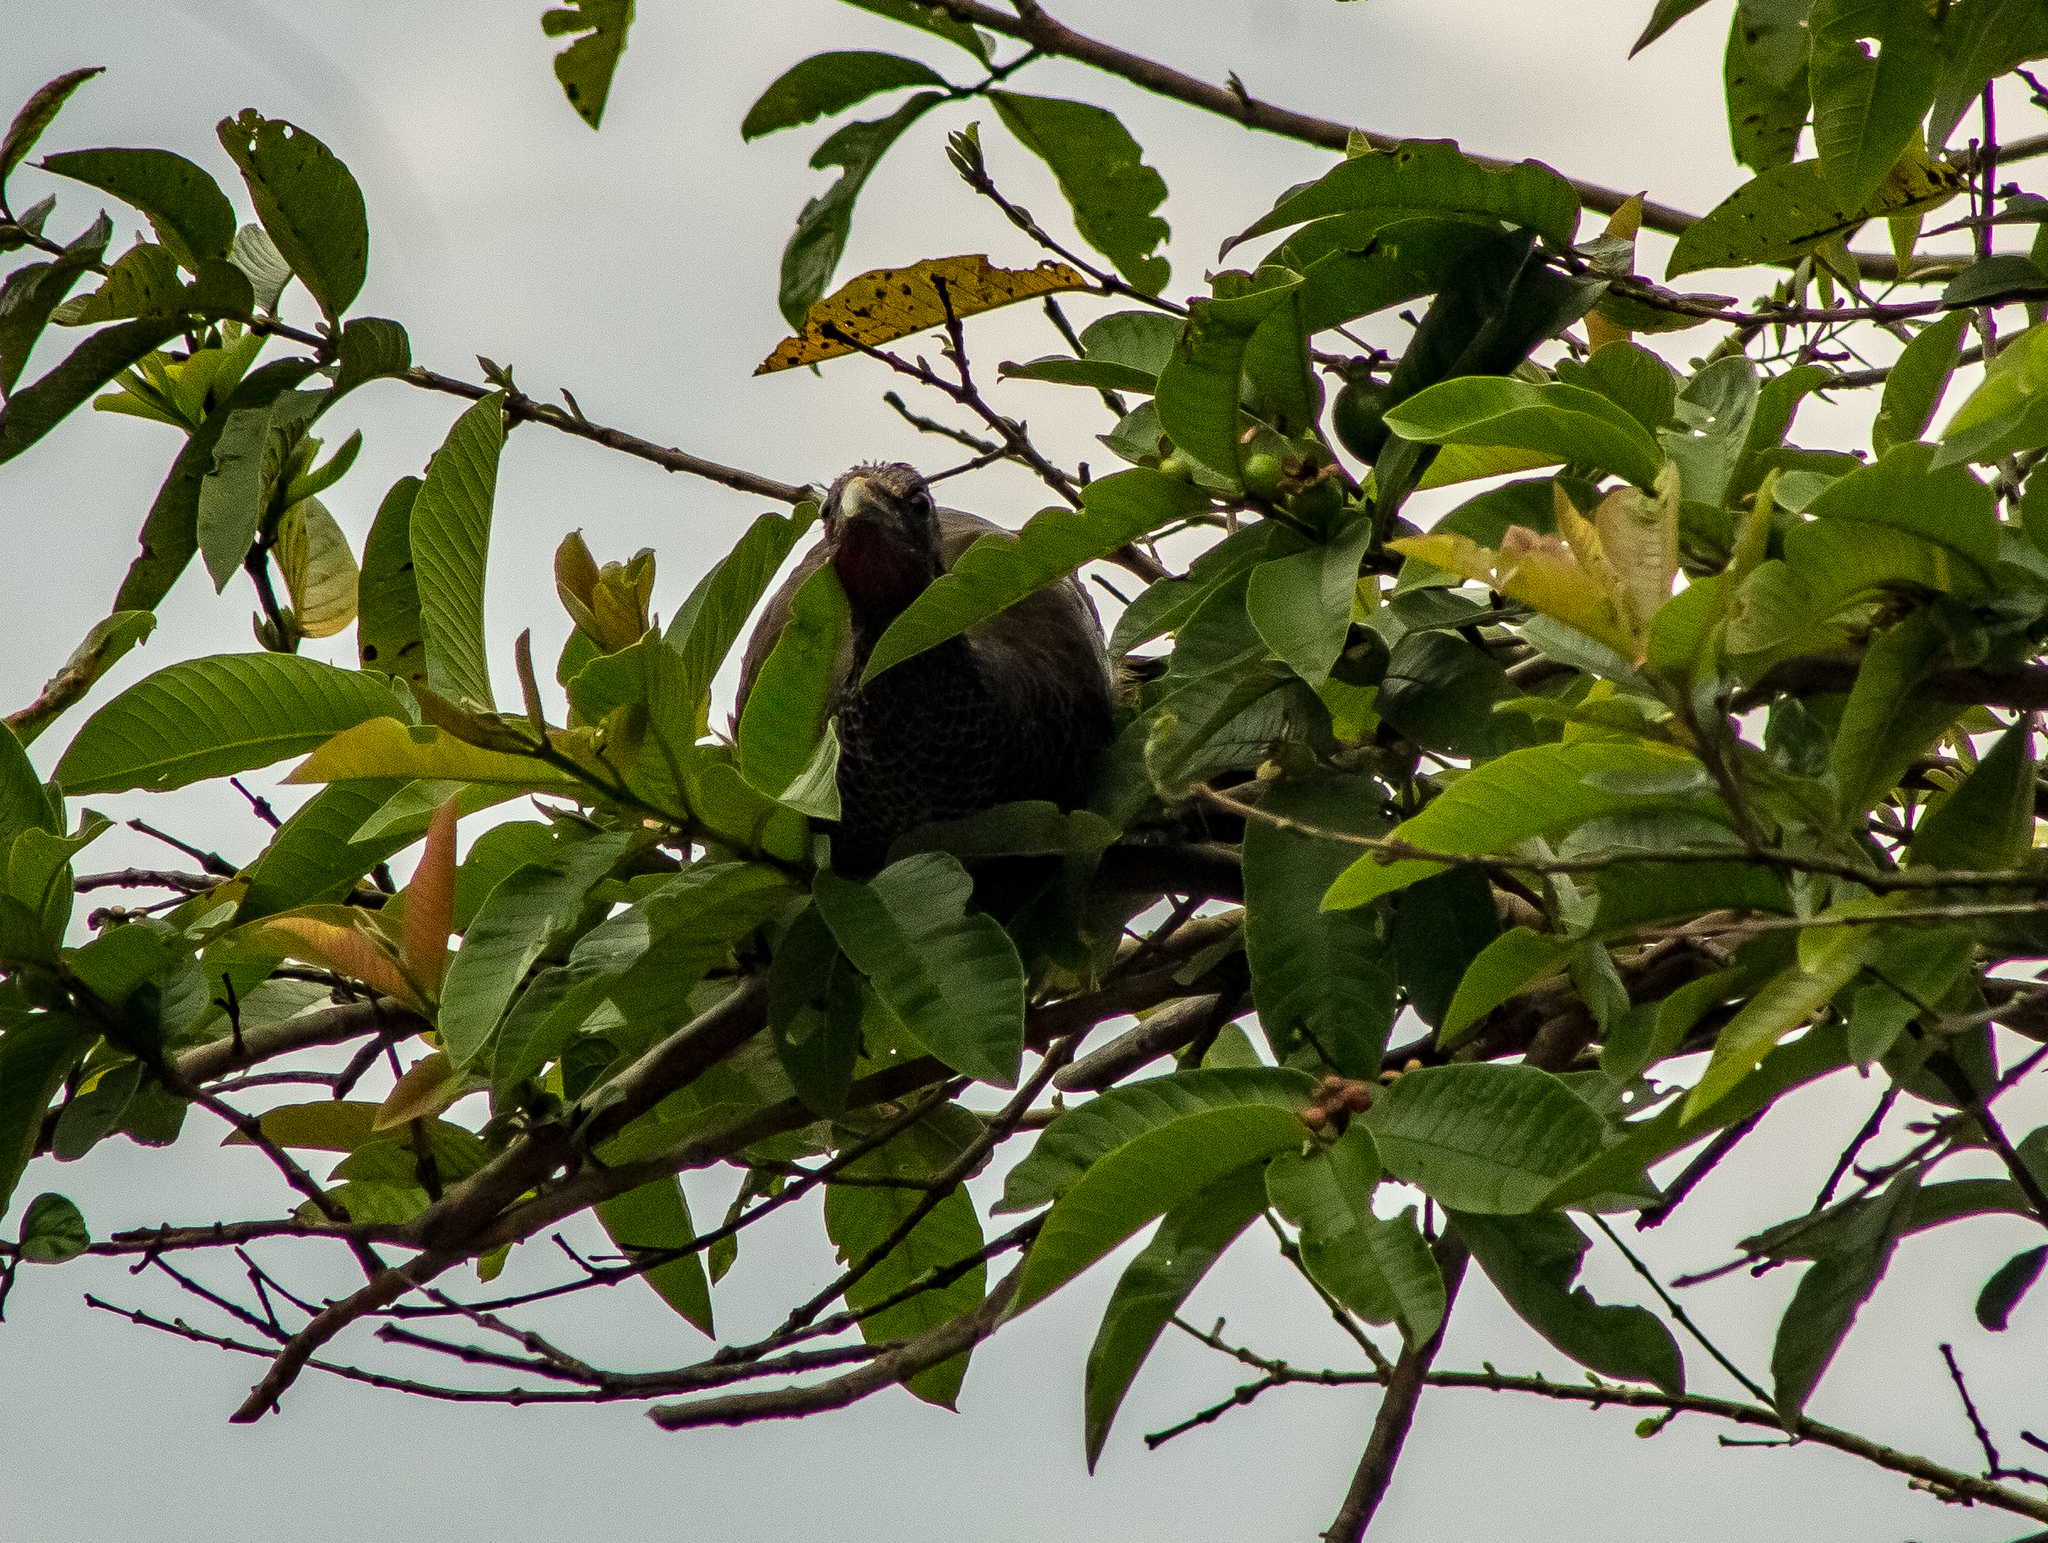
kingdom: Animalia
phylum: Chordata
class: Aves
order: Galliformes
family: Cracidae
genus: Ortalis
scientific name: Ortalis columbiana
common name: Colombian chachalaca
